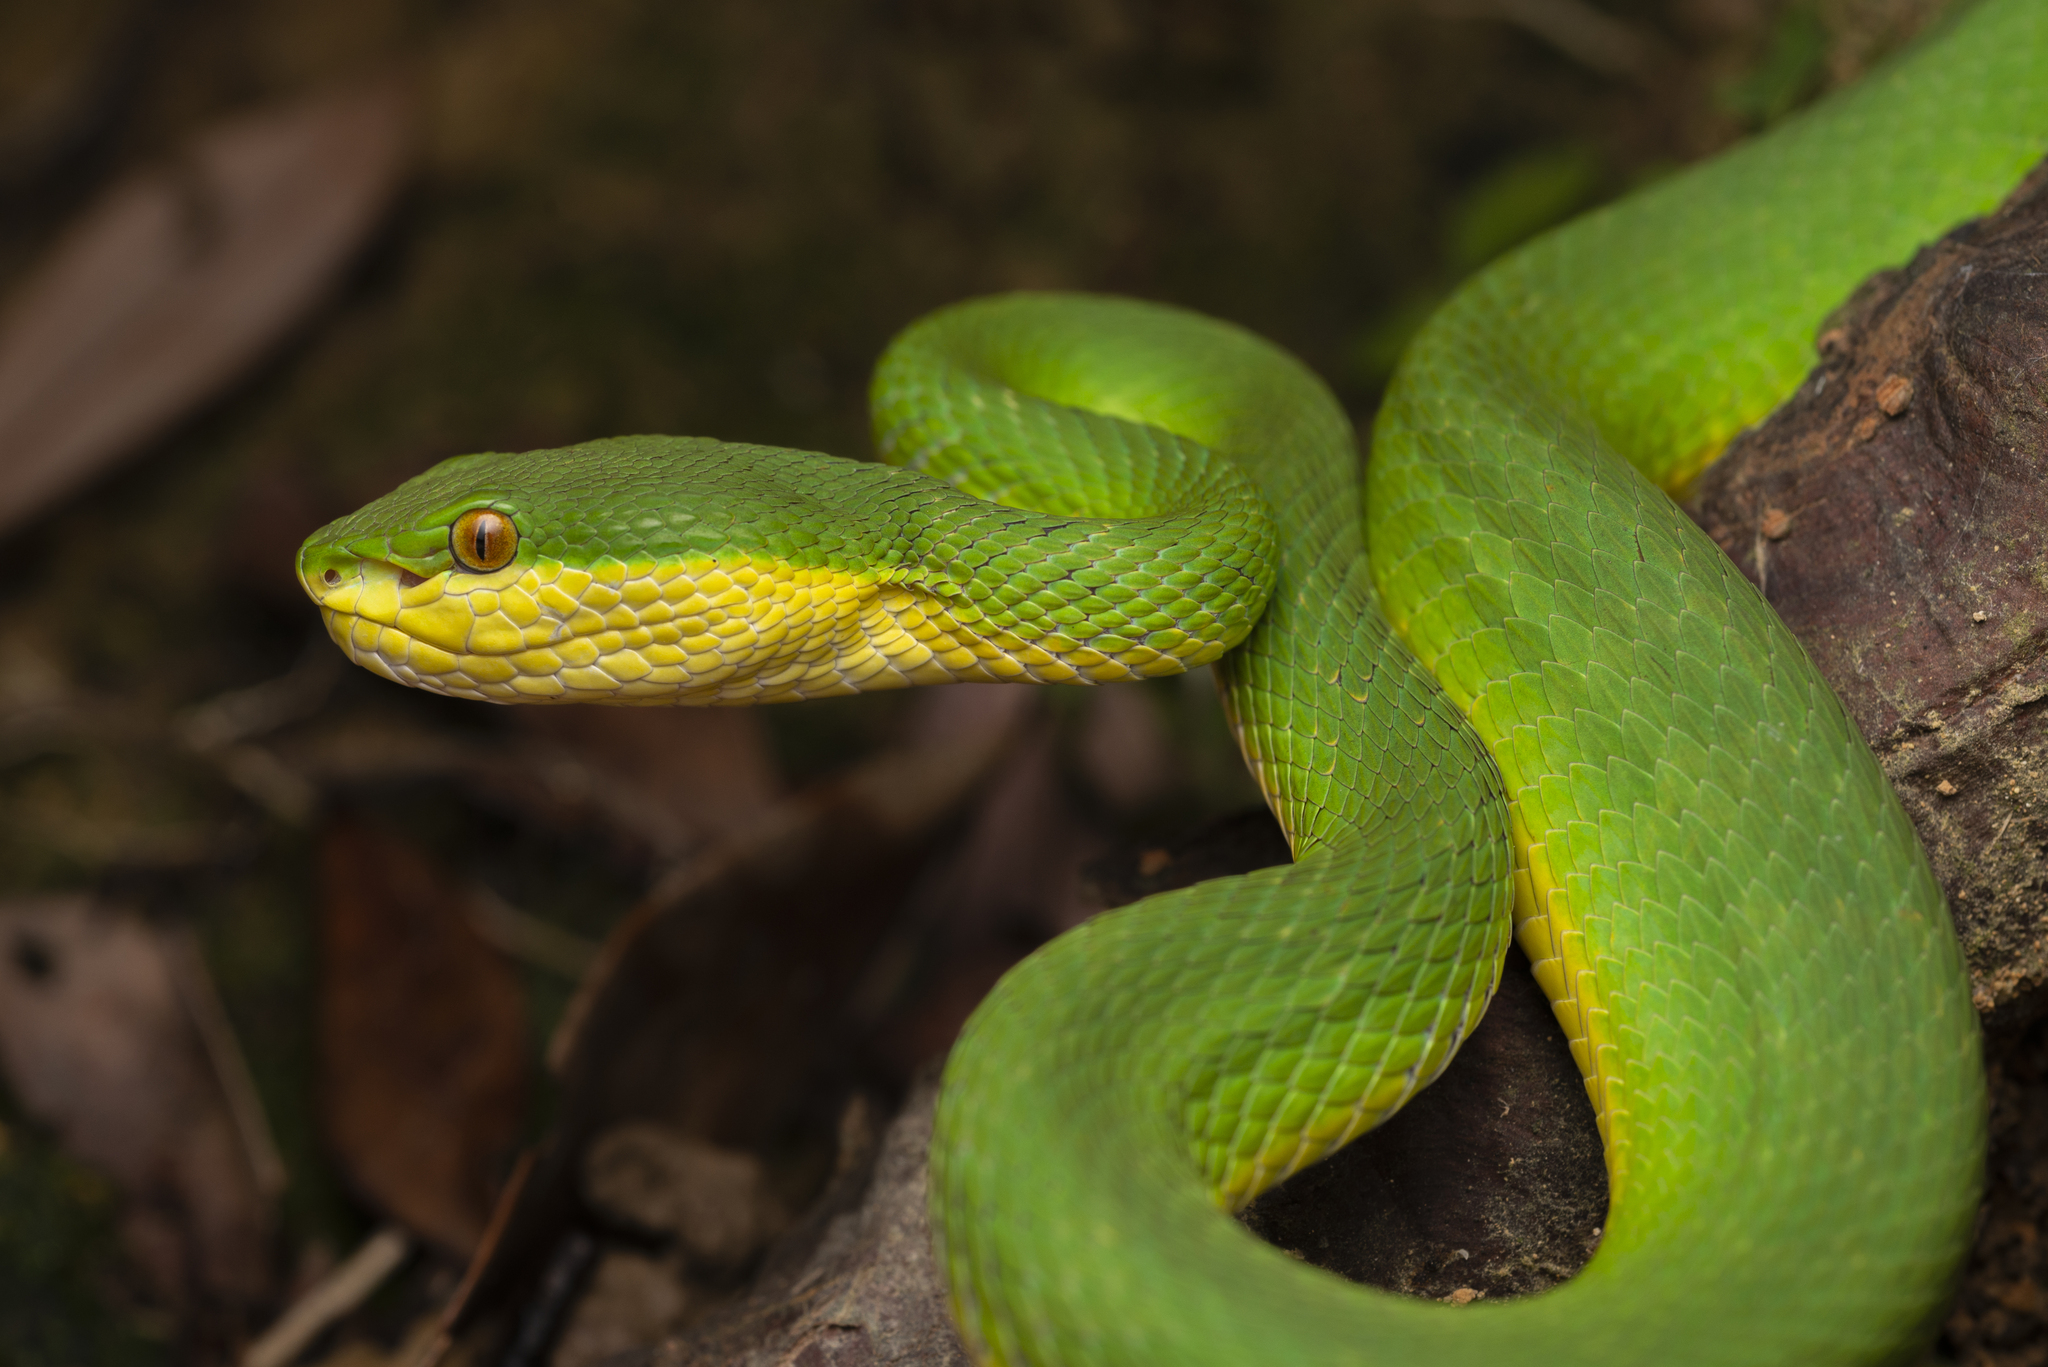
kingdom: Animalia
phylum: Chordata
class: Squamata
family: Viperidae
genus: Trimeresurus
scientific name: Trimeresurus albolabris
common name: White-lipped pitviper
